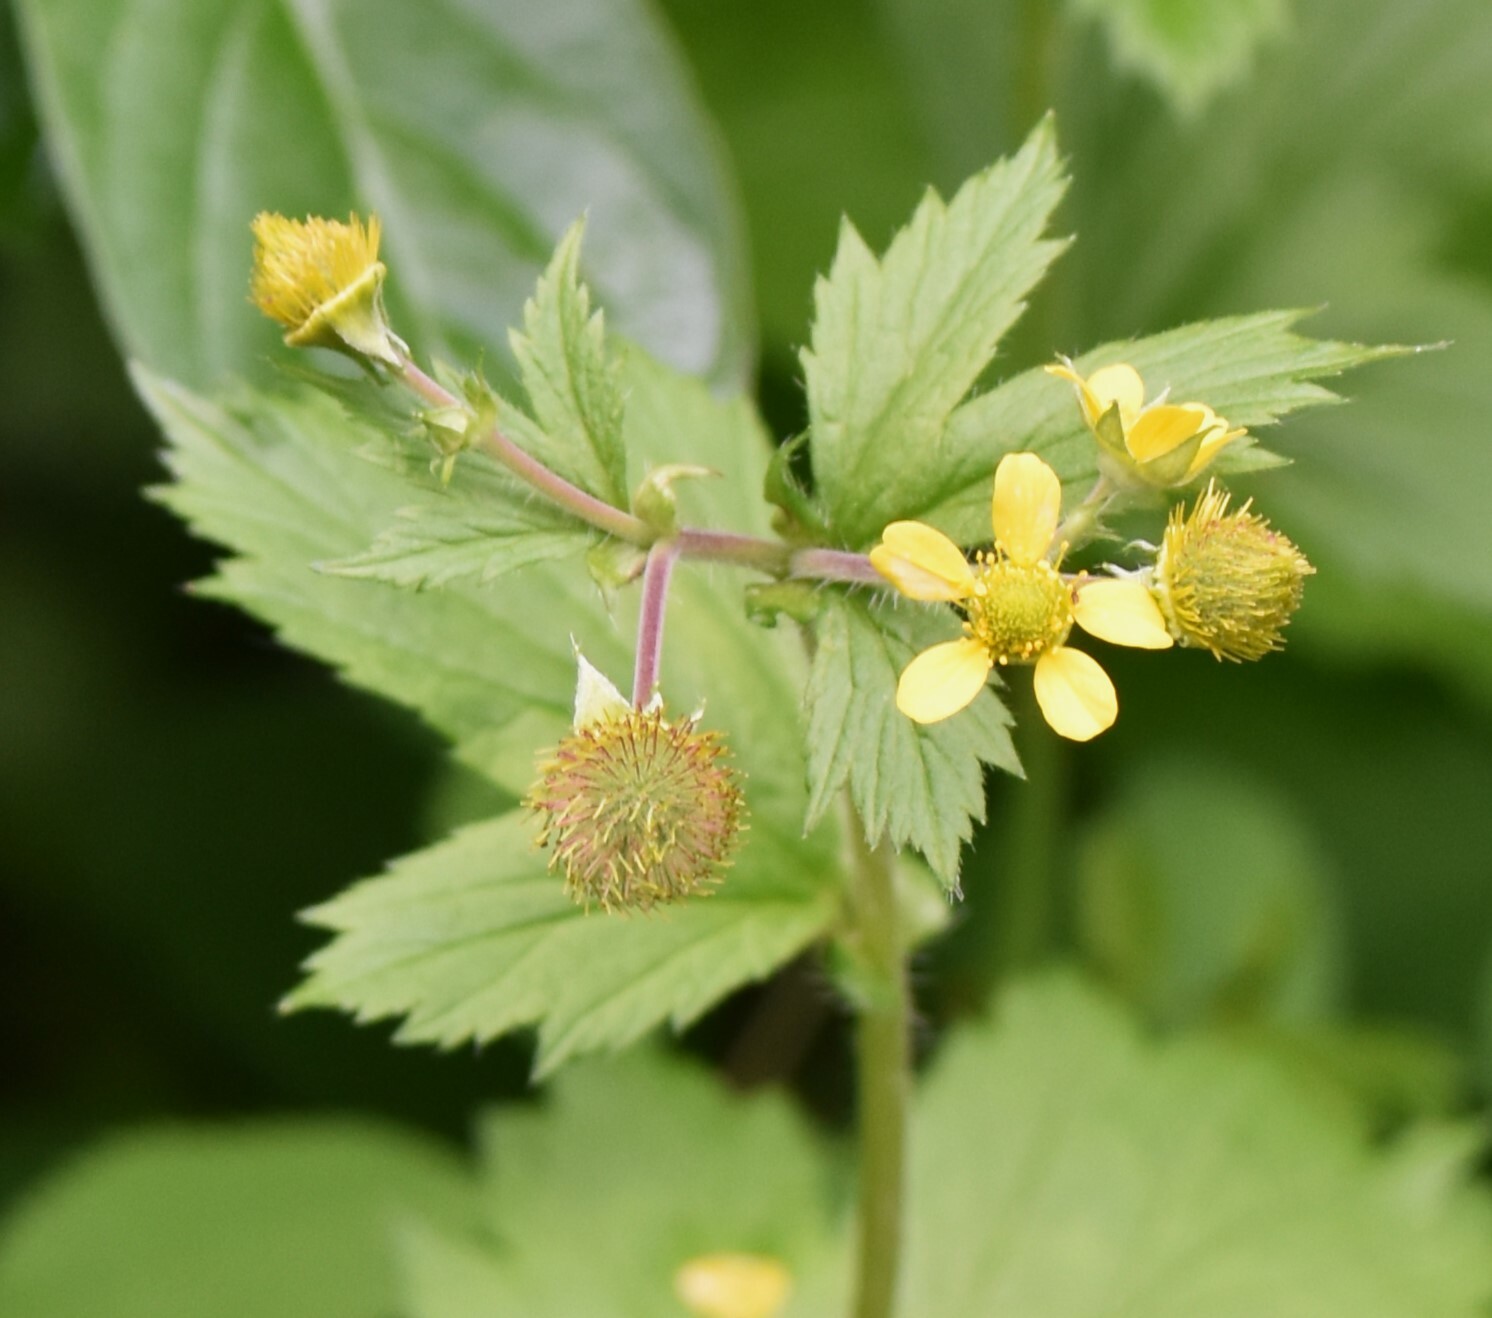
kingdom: Plantae
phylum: Tracheophyta
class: Magnoliopsida
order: Rosales
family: Rosaceae
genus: Geum
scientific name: Geum macrophyllum
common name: Large-leaved avens
